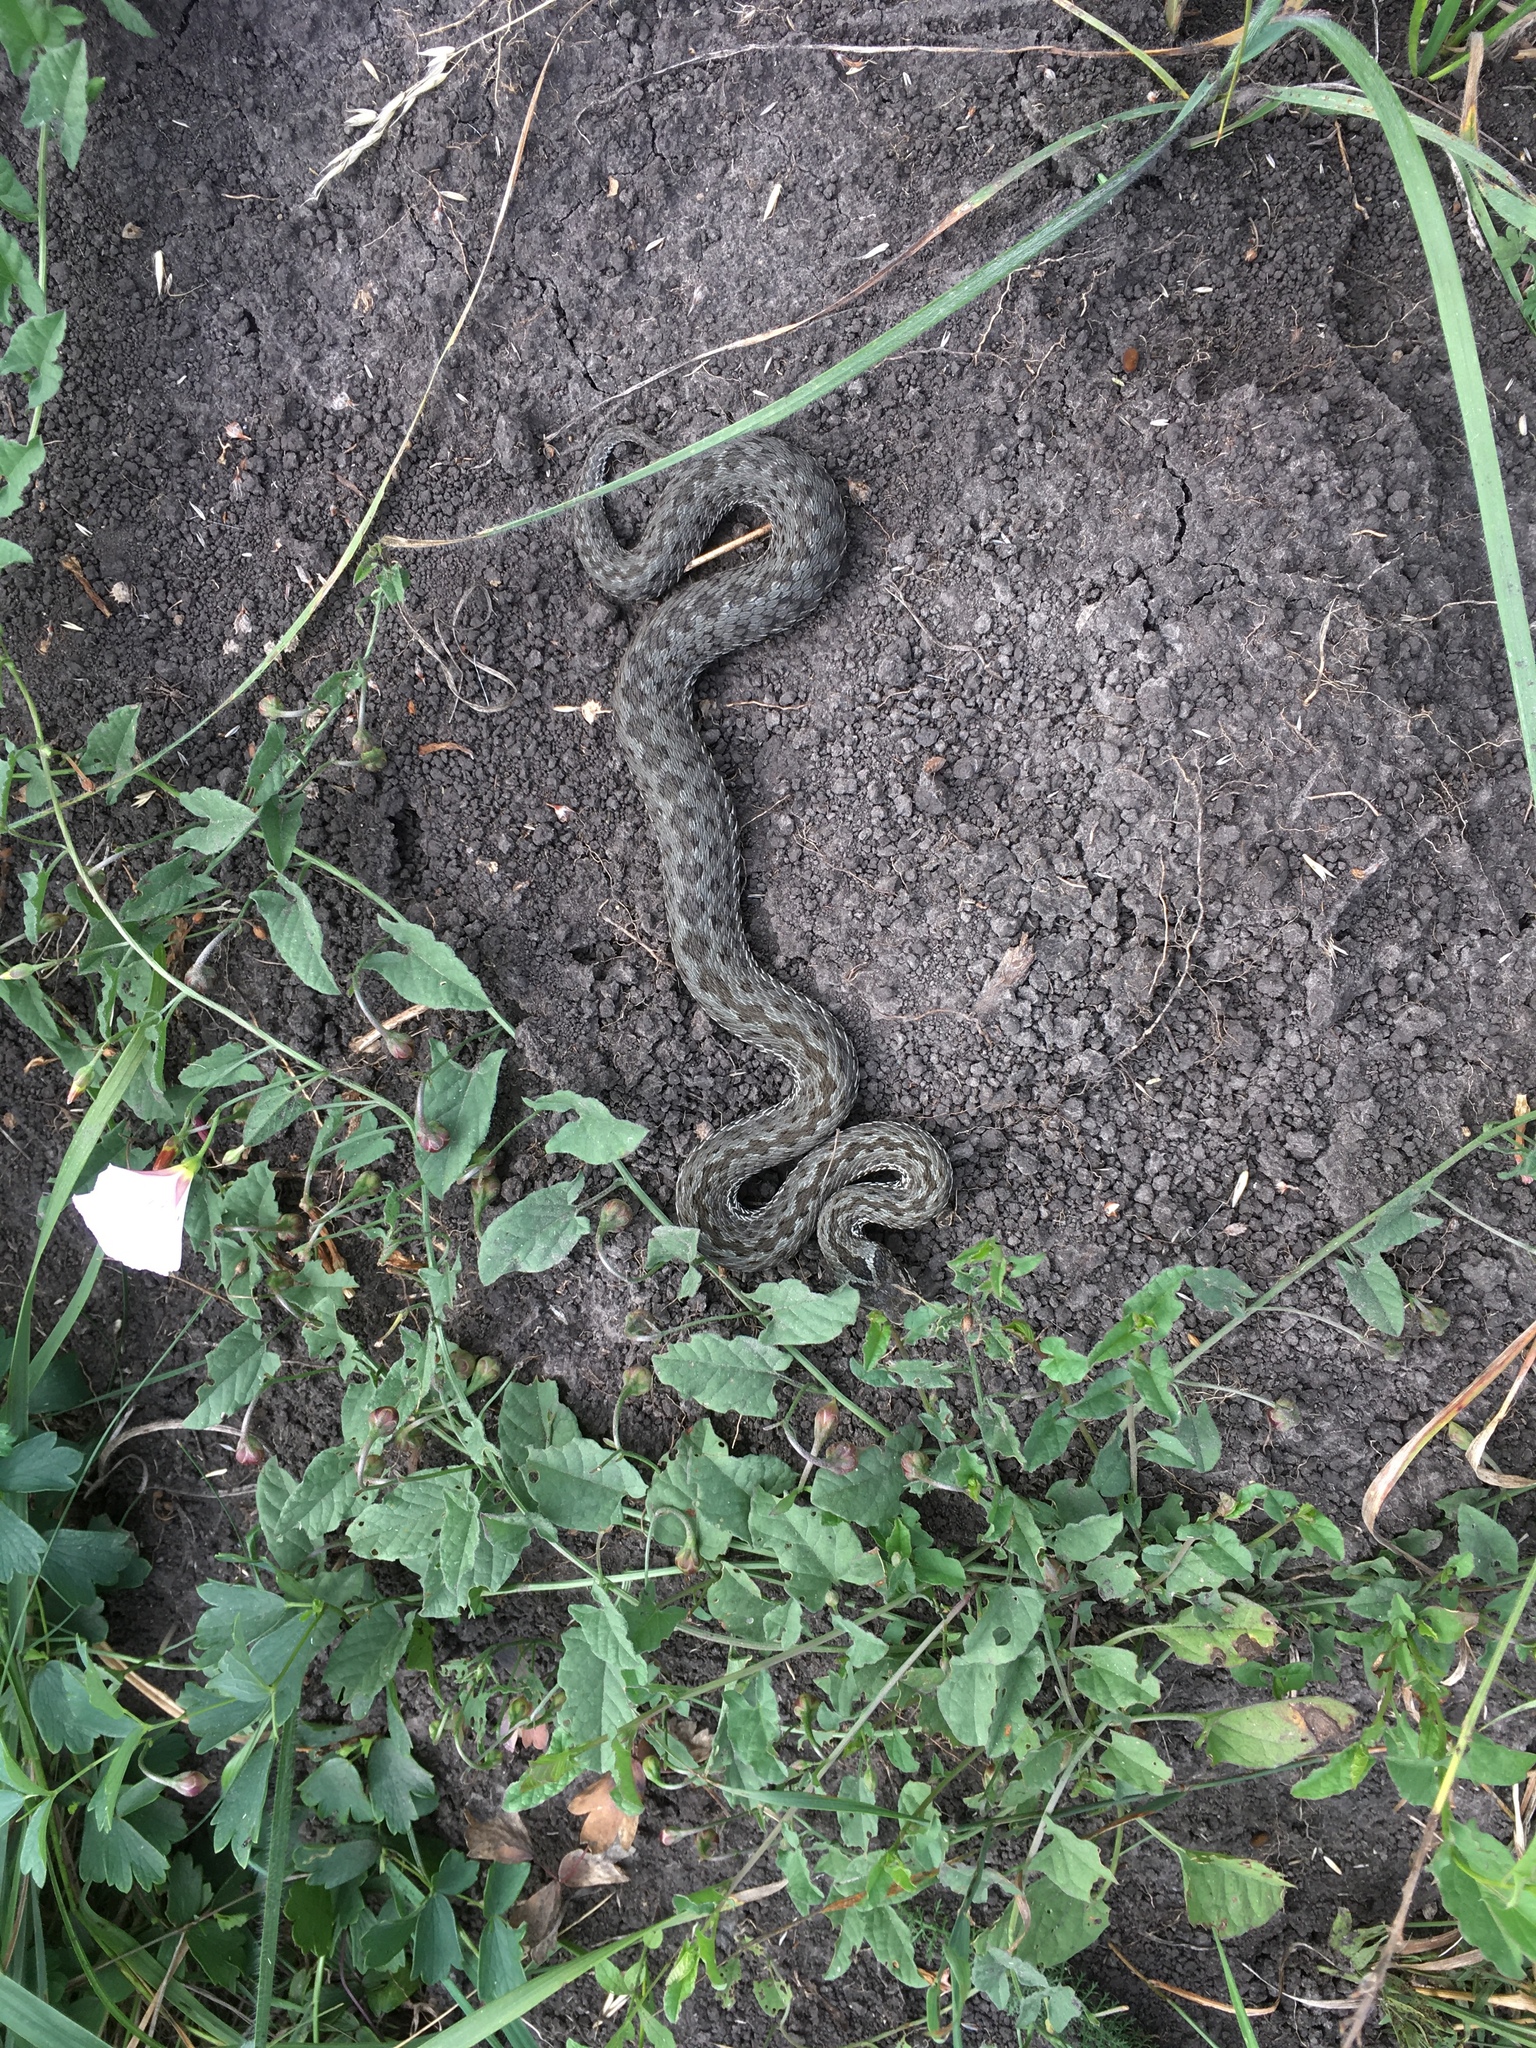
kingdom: Animalia
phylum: Chordata
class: Squamata
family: Viperidae
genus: Vipera
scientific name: Vipera renardi
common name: Eastern steppe viper
